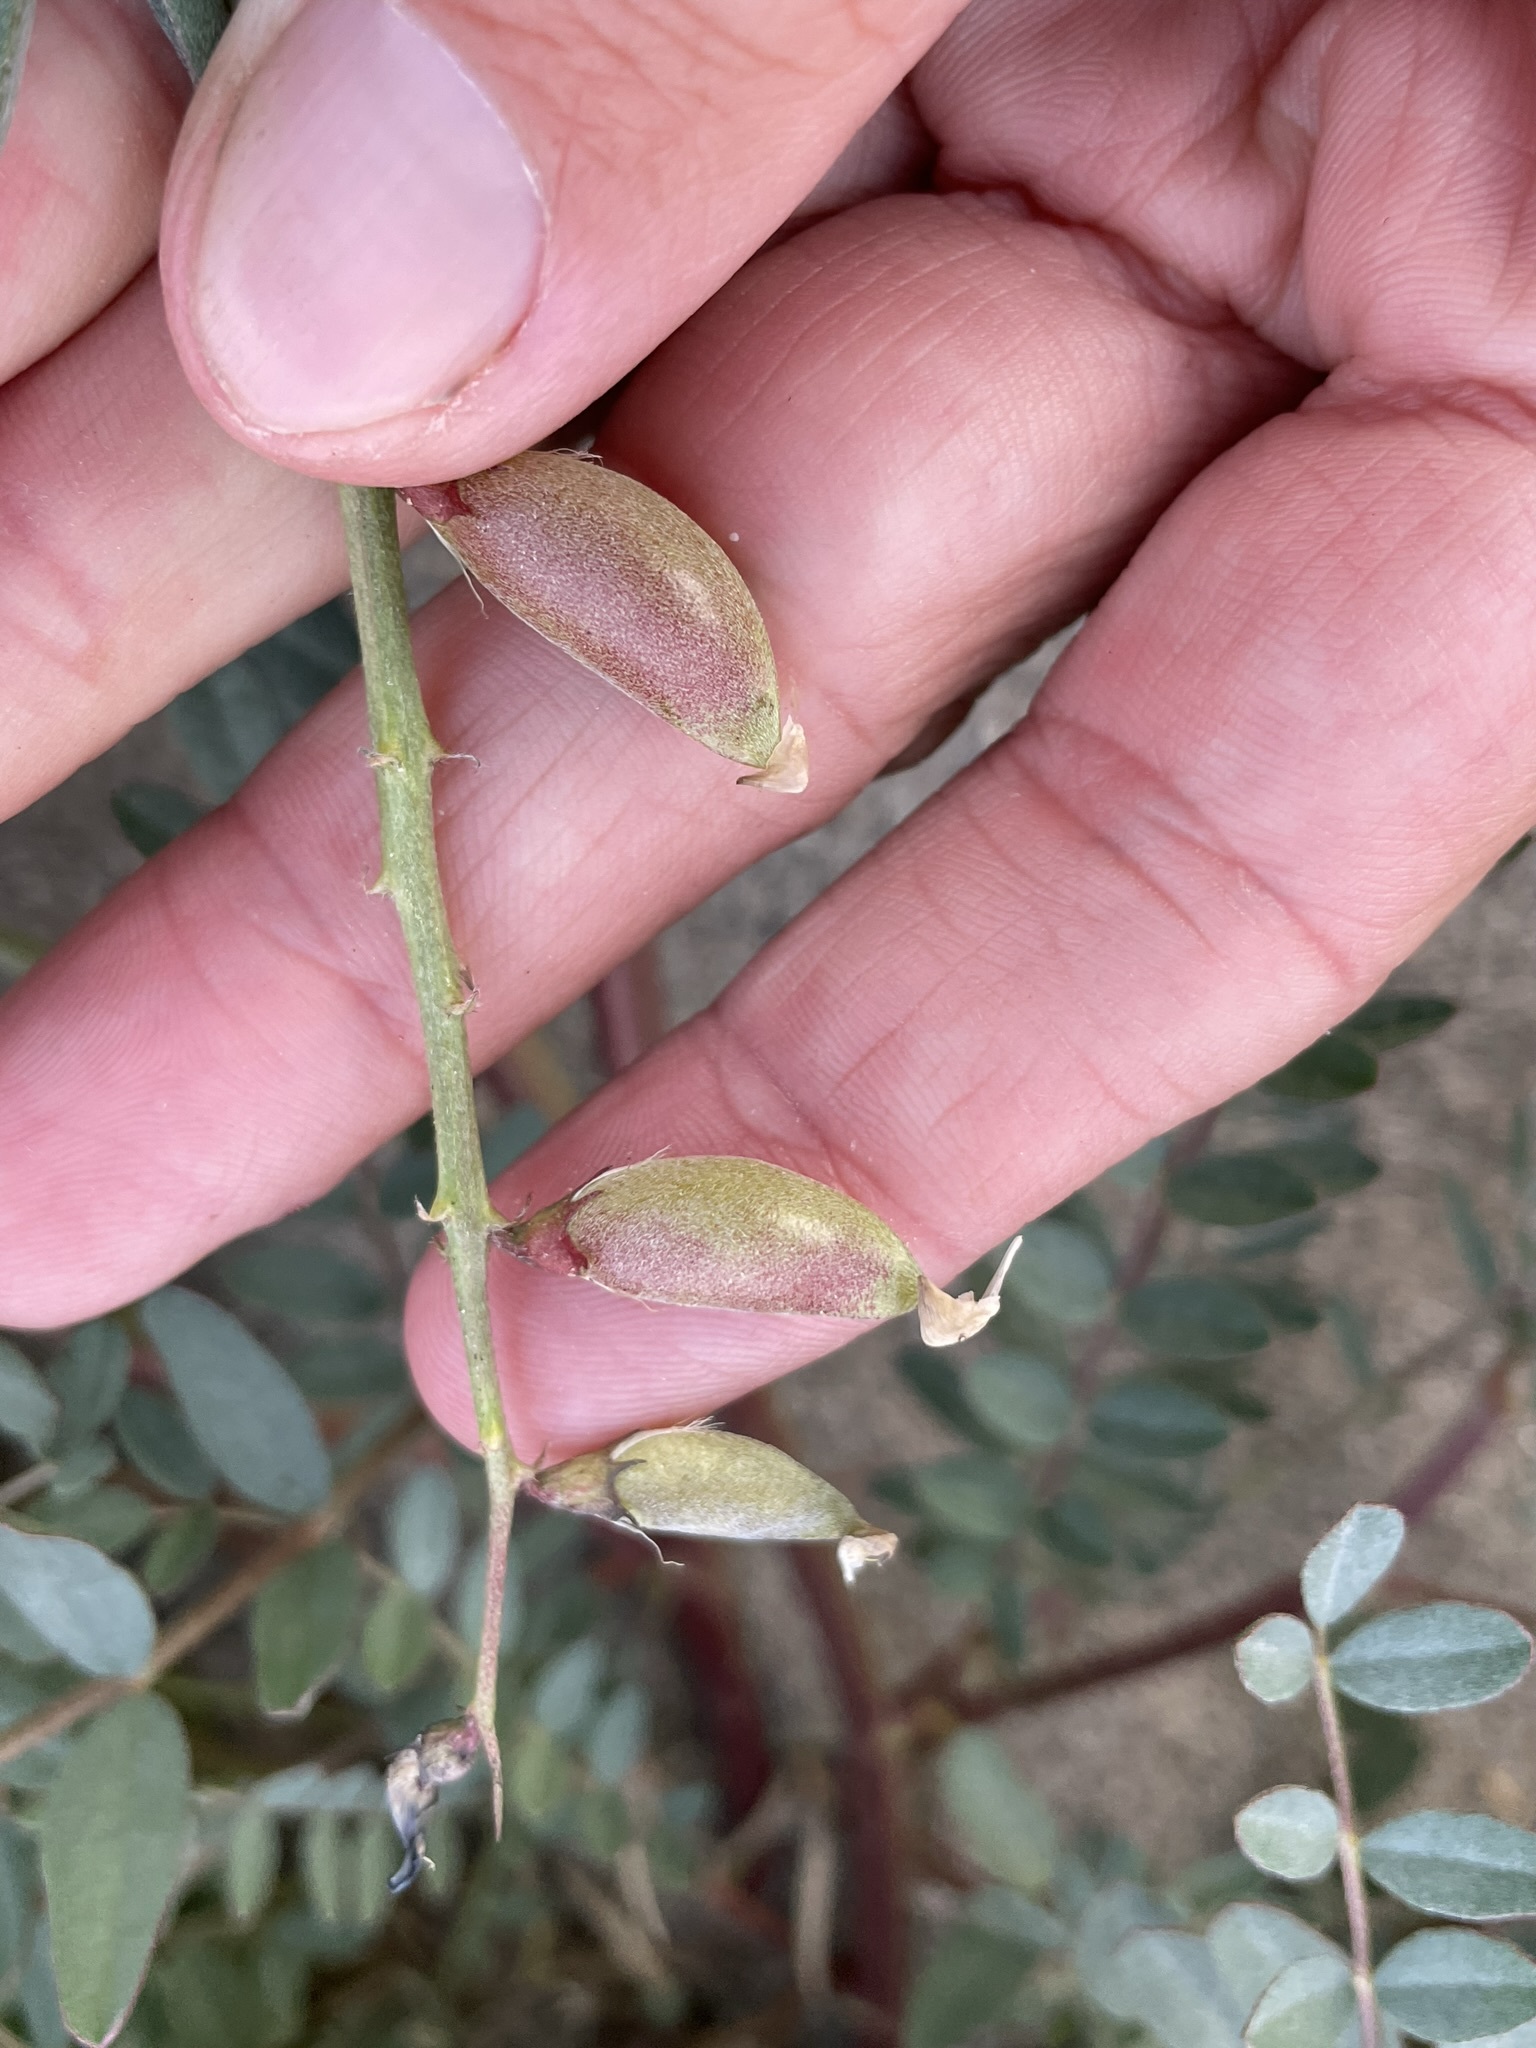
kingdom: Plantae
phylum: Tracheophyta
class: Magnoliopsida
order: Fabales
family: Fabaceae
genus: Astragalus
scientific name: Astragalus palmeri
